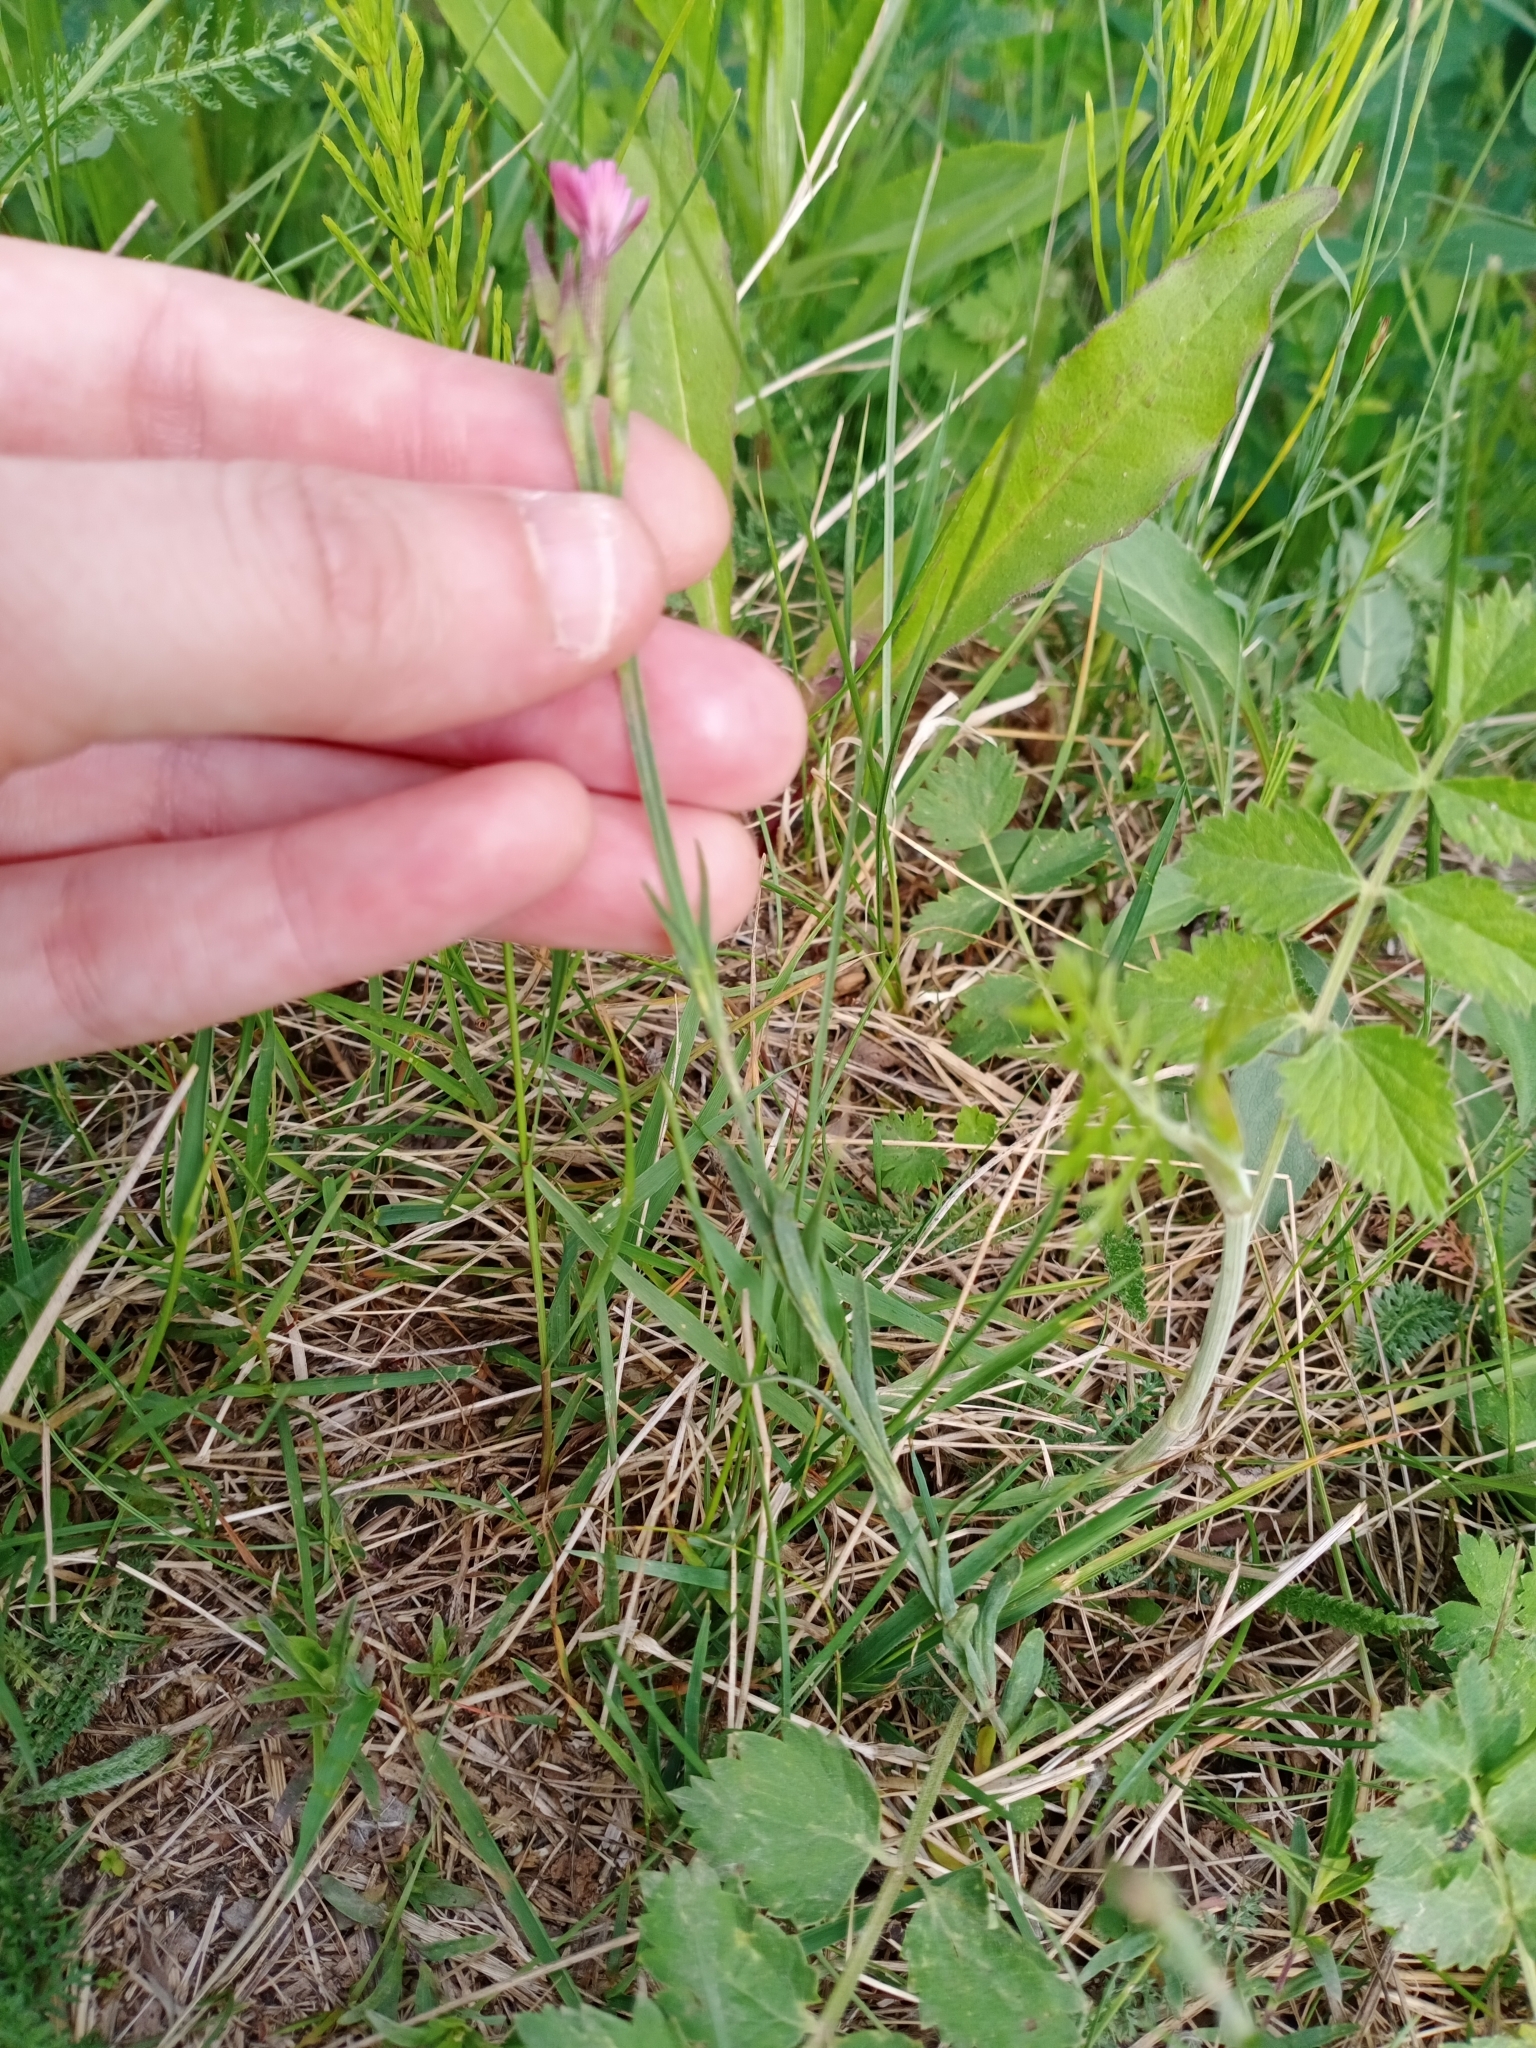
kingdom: Plantae
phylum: Tracheophyta
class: Magnoliopsida
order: Caryophyllales
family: Caryophyllaceae
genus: Dianthus
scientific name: Dianthus deltoides
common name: Maiden pink
